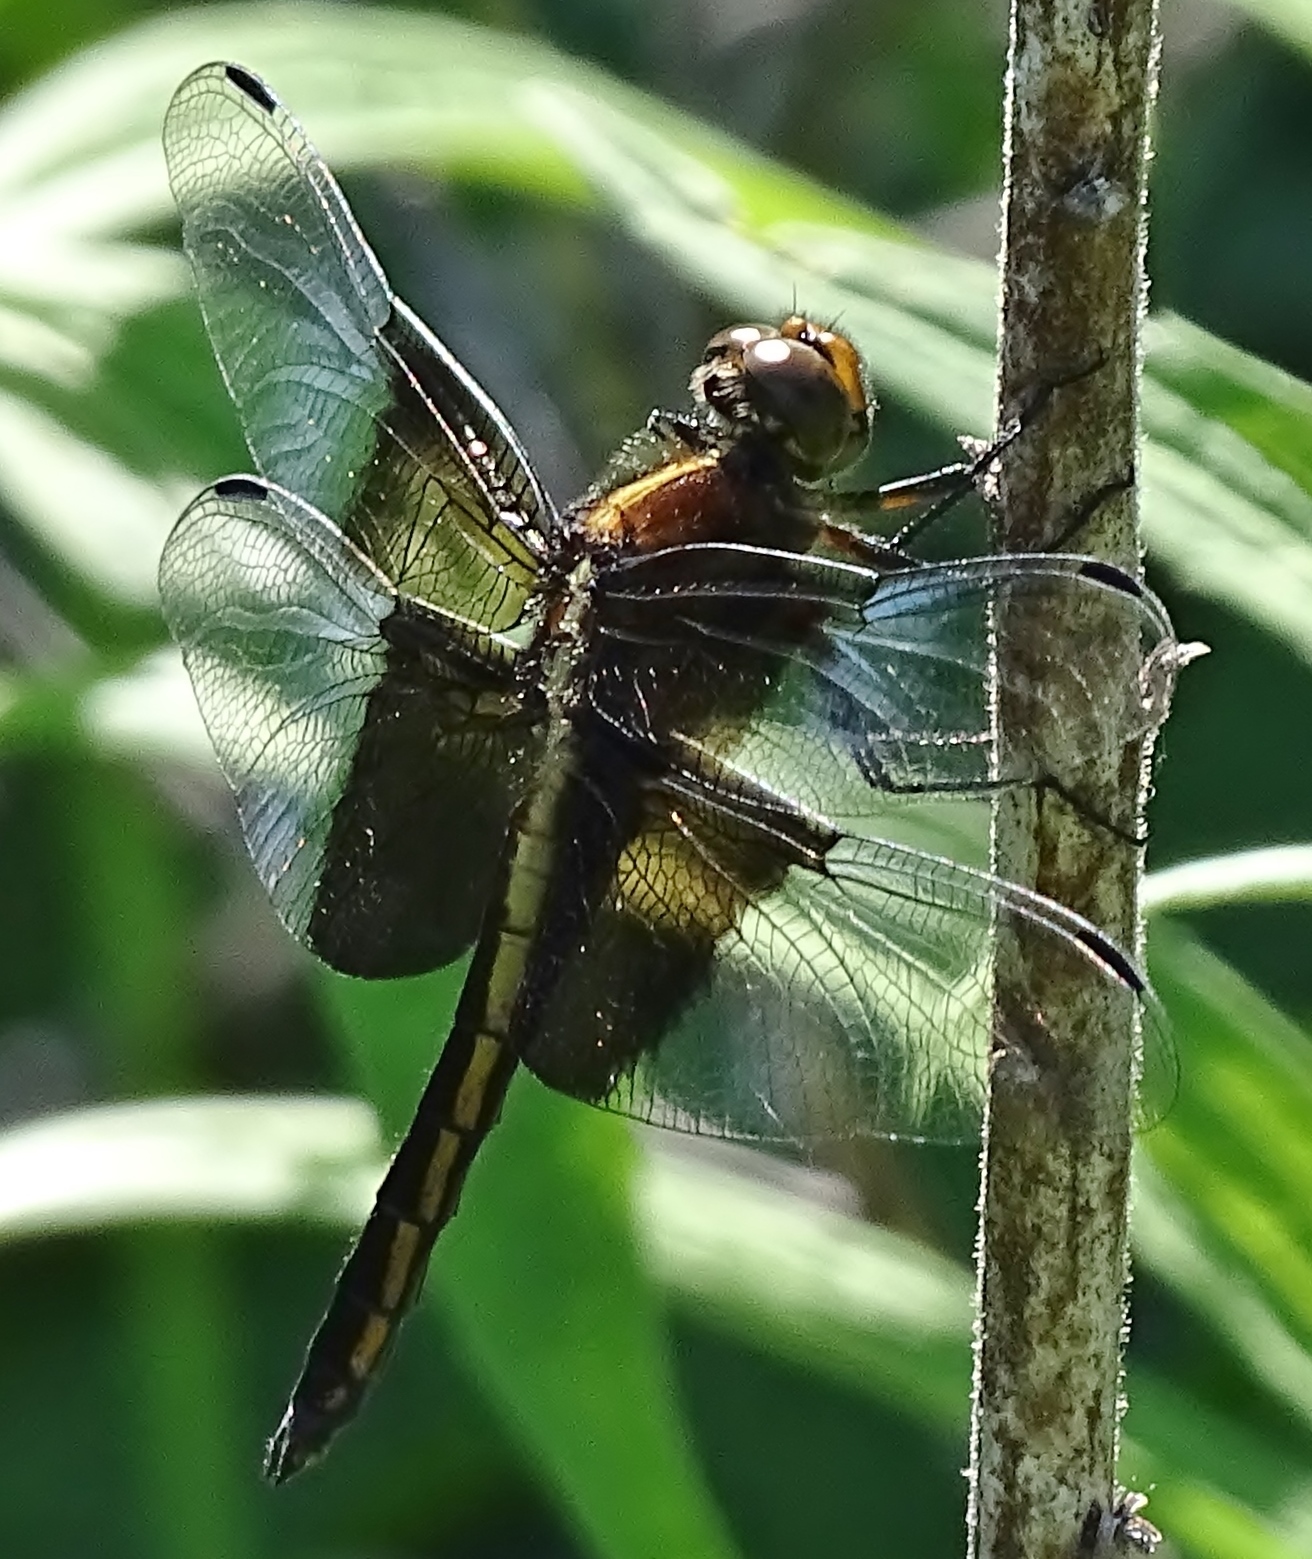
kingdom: Animalia
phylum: Arthropoda
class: Insecta
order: Odonata
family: Libellulidae
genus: Libellula
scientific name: Libellula luctuosa
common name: Widow skimmer
